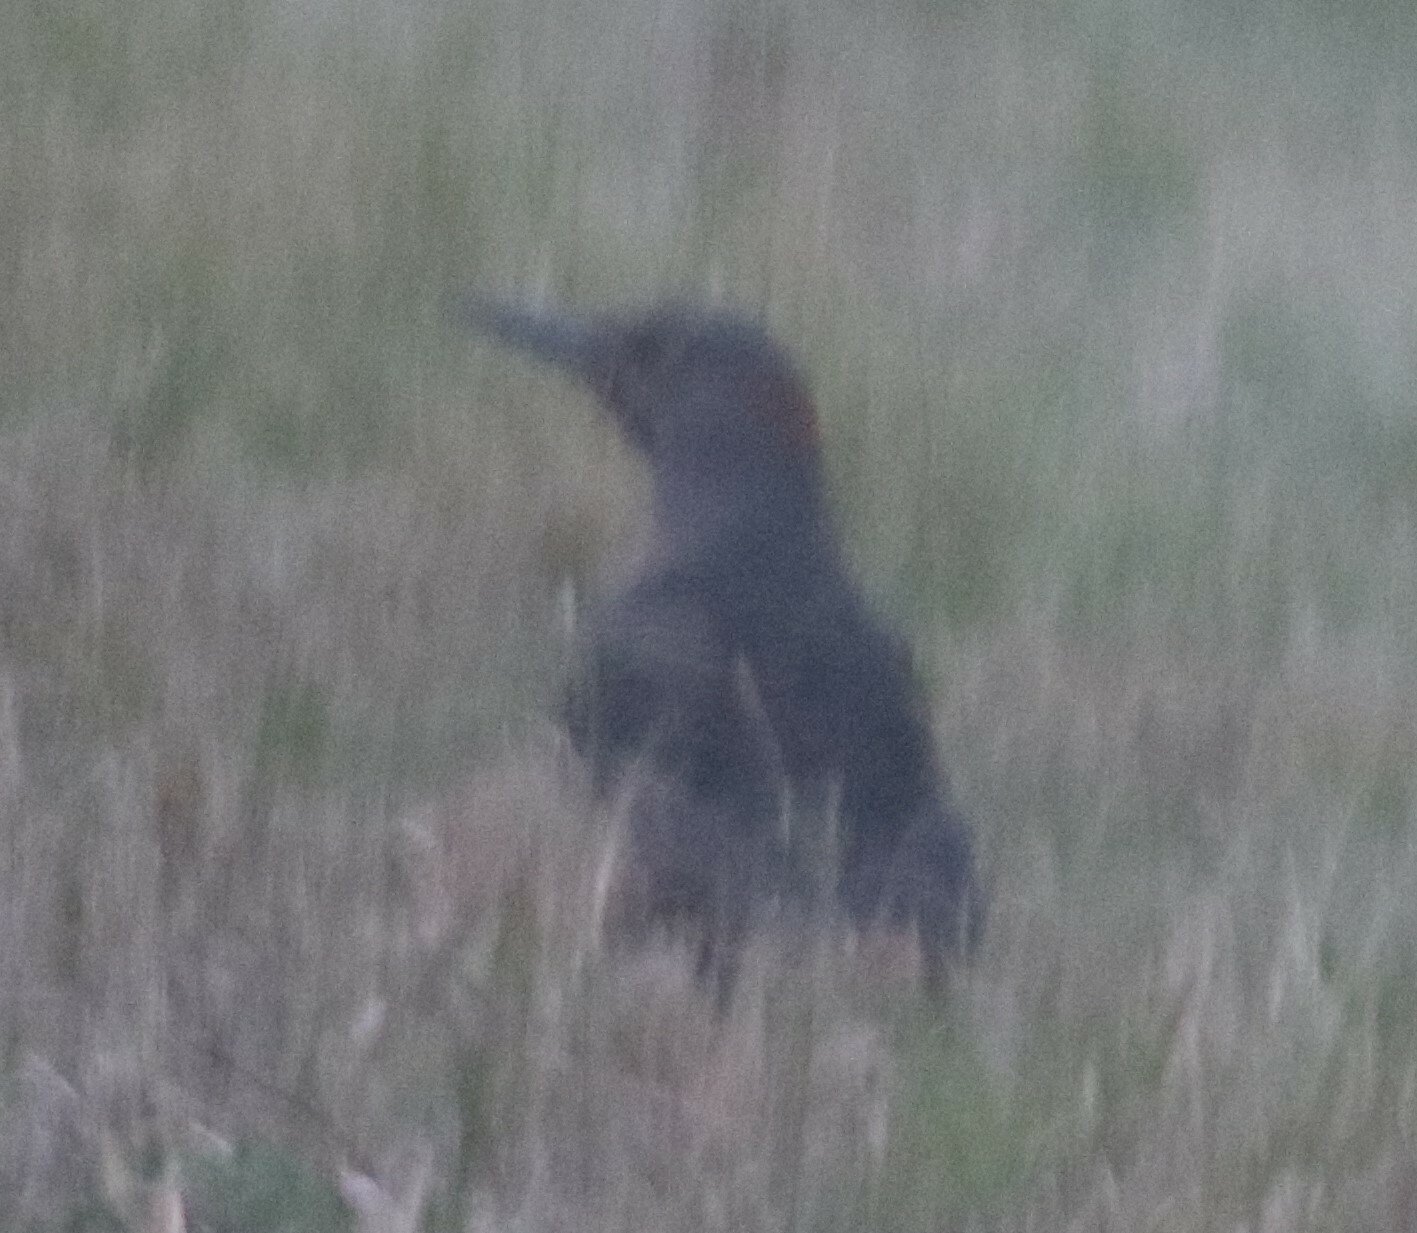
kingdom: Animalia
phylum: Chordata
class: Aves
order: Piciformes
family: Picidae
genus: Colaptes
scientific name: Colaptes auratus
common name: Northern flicker
